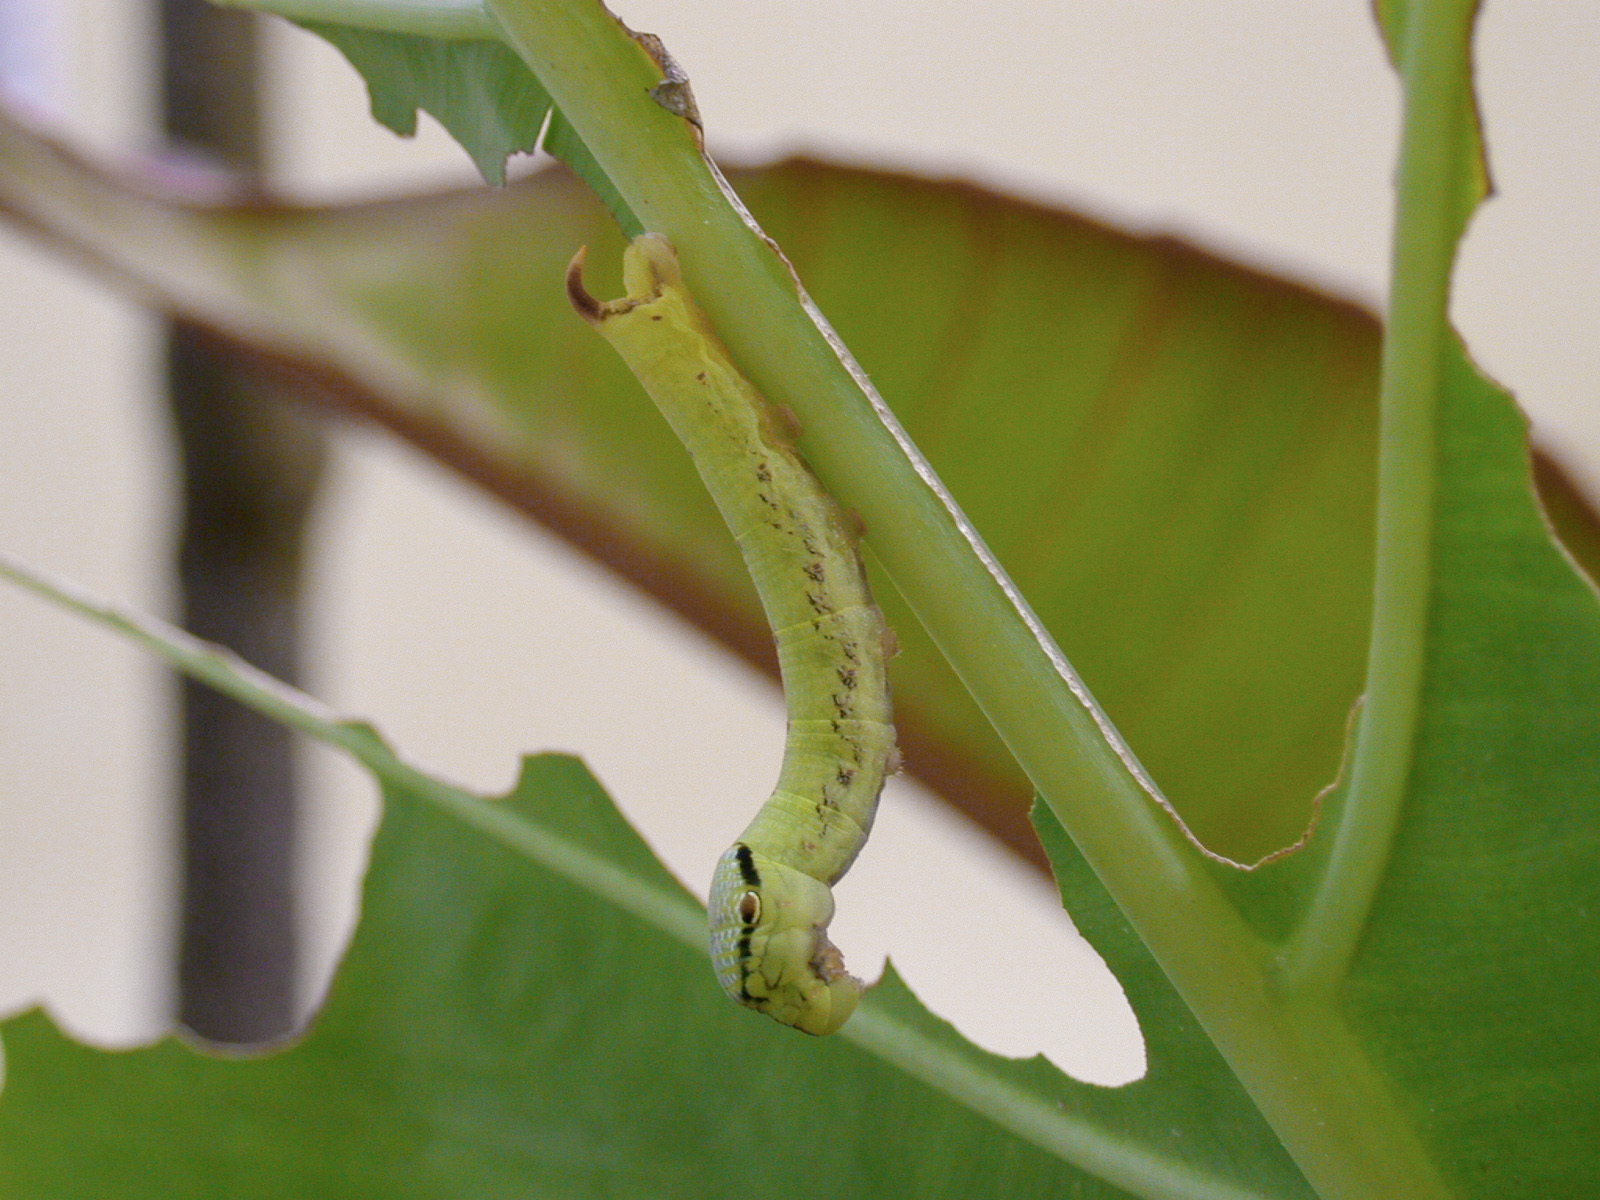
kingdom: Animalia
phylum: Arthropoda
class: Insecta
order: Lepidoptera
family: Sphingidae
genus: Eupanacra
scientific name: Eupanacra elegantulus
